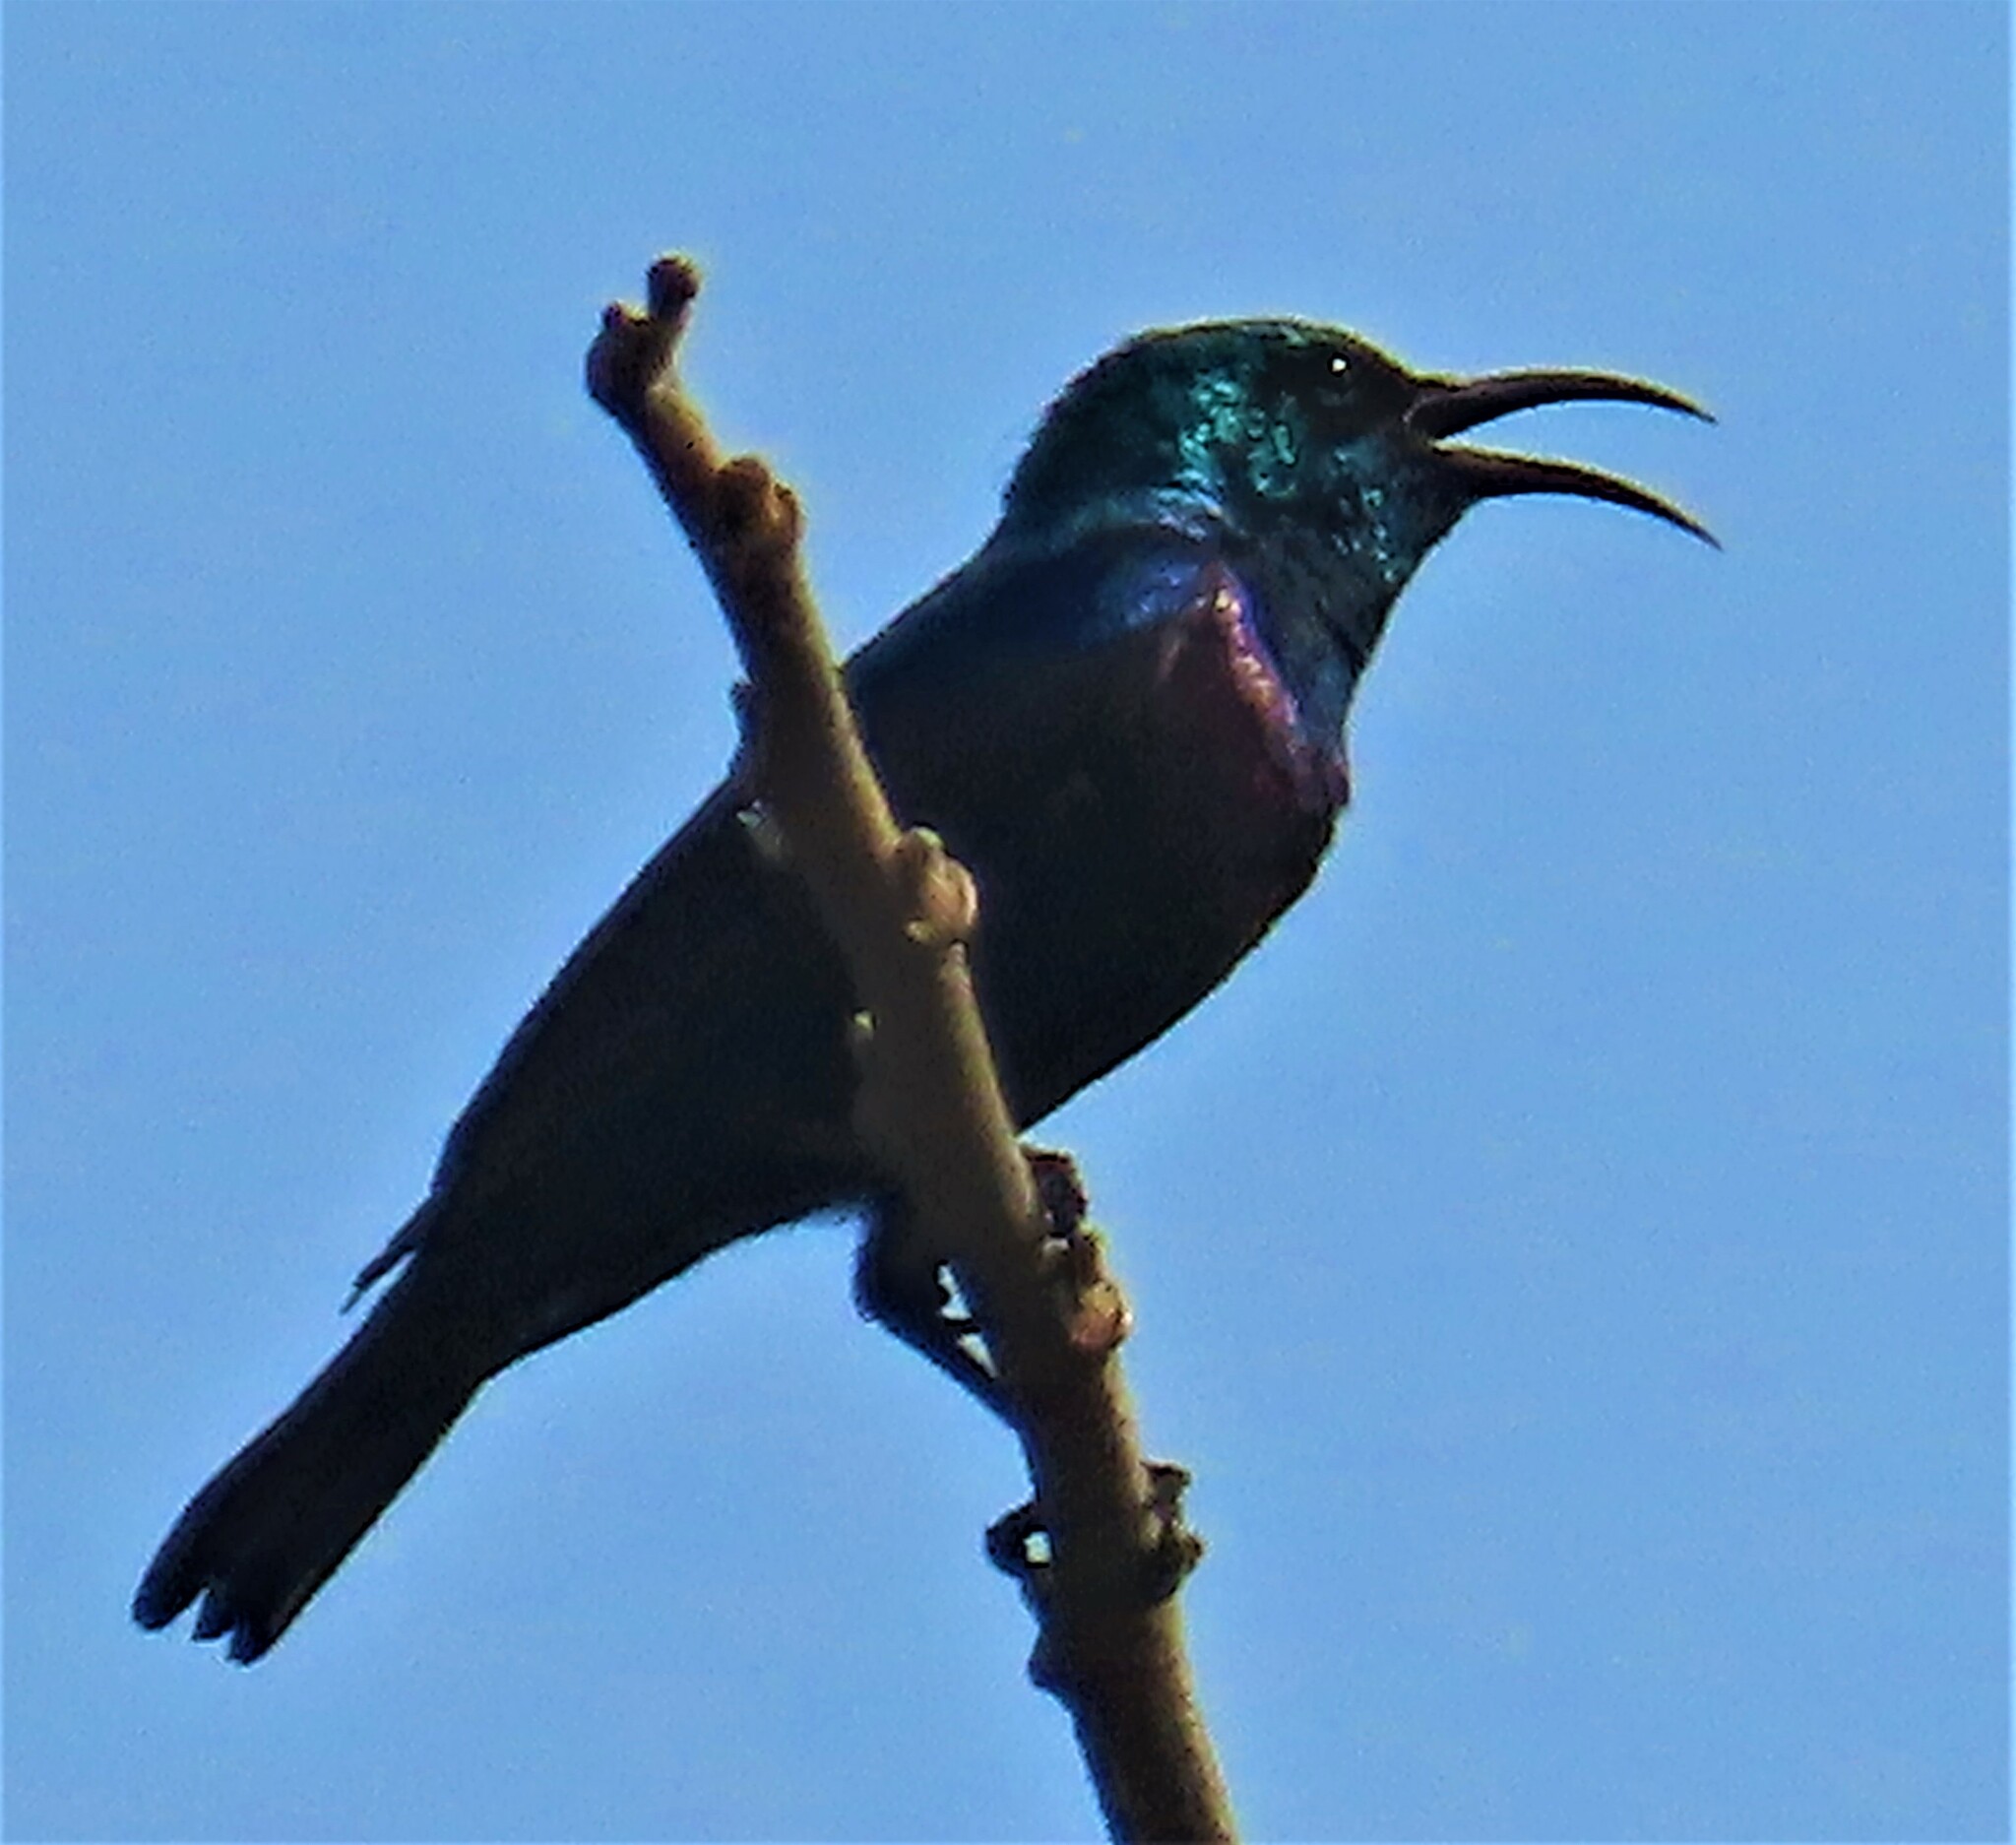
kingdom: Animalia
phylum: Chordata
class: Aves
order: Passeriformes
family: Nectariniidae
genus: Cinnyris
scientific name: Cinnyris bifasciatus
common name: Purple-banded sunbird
